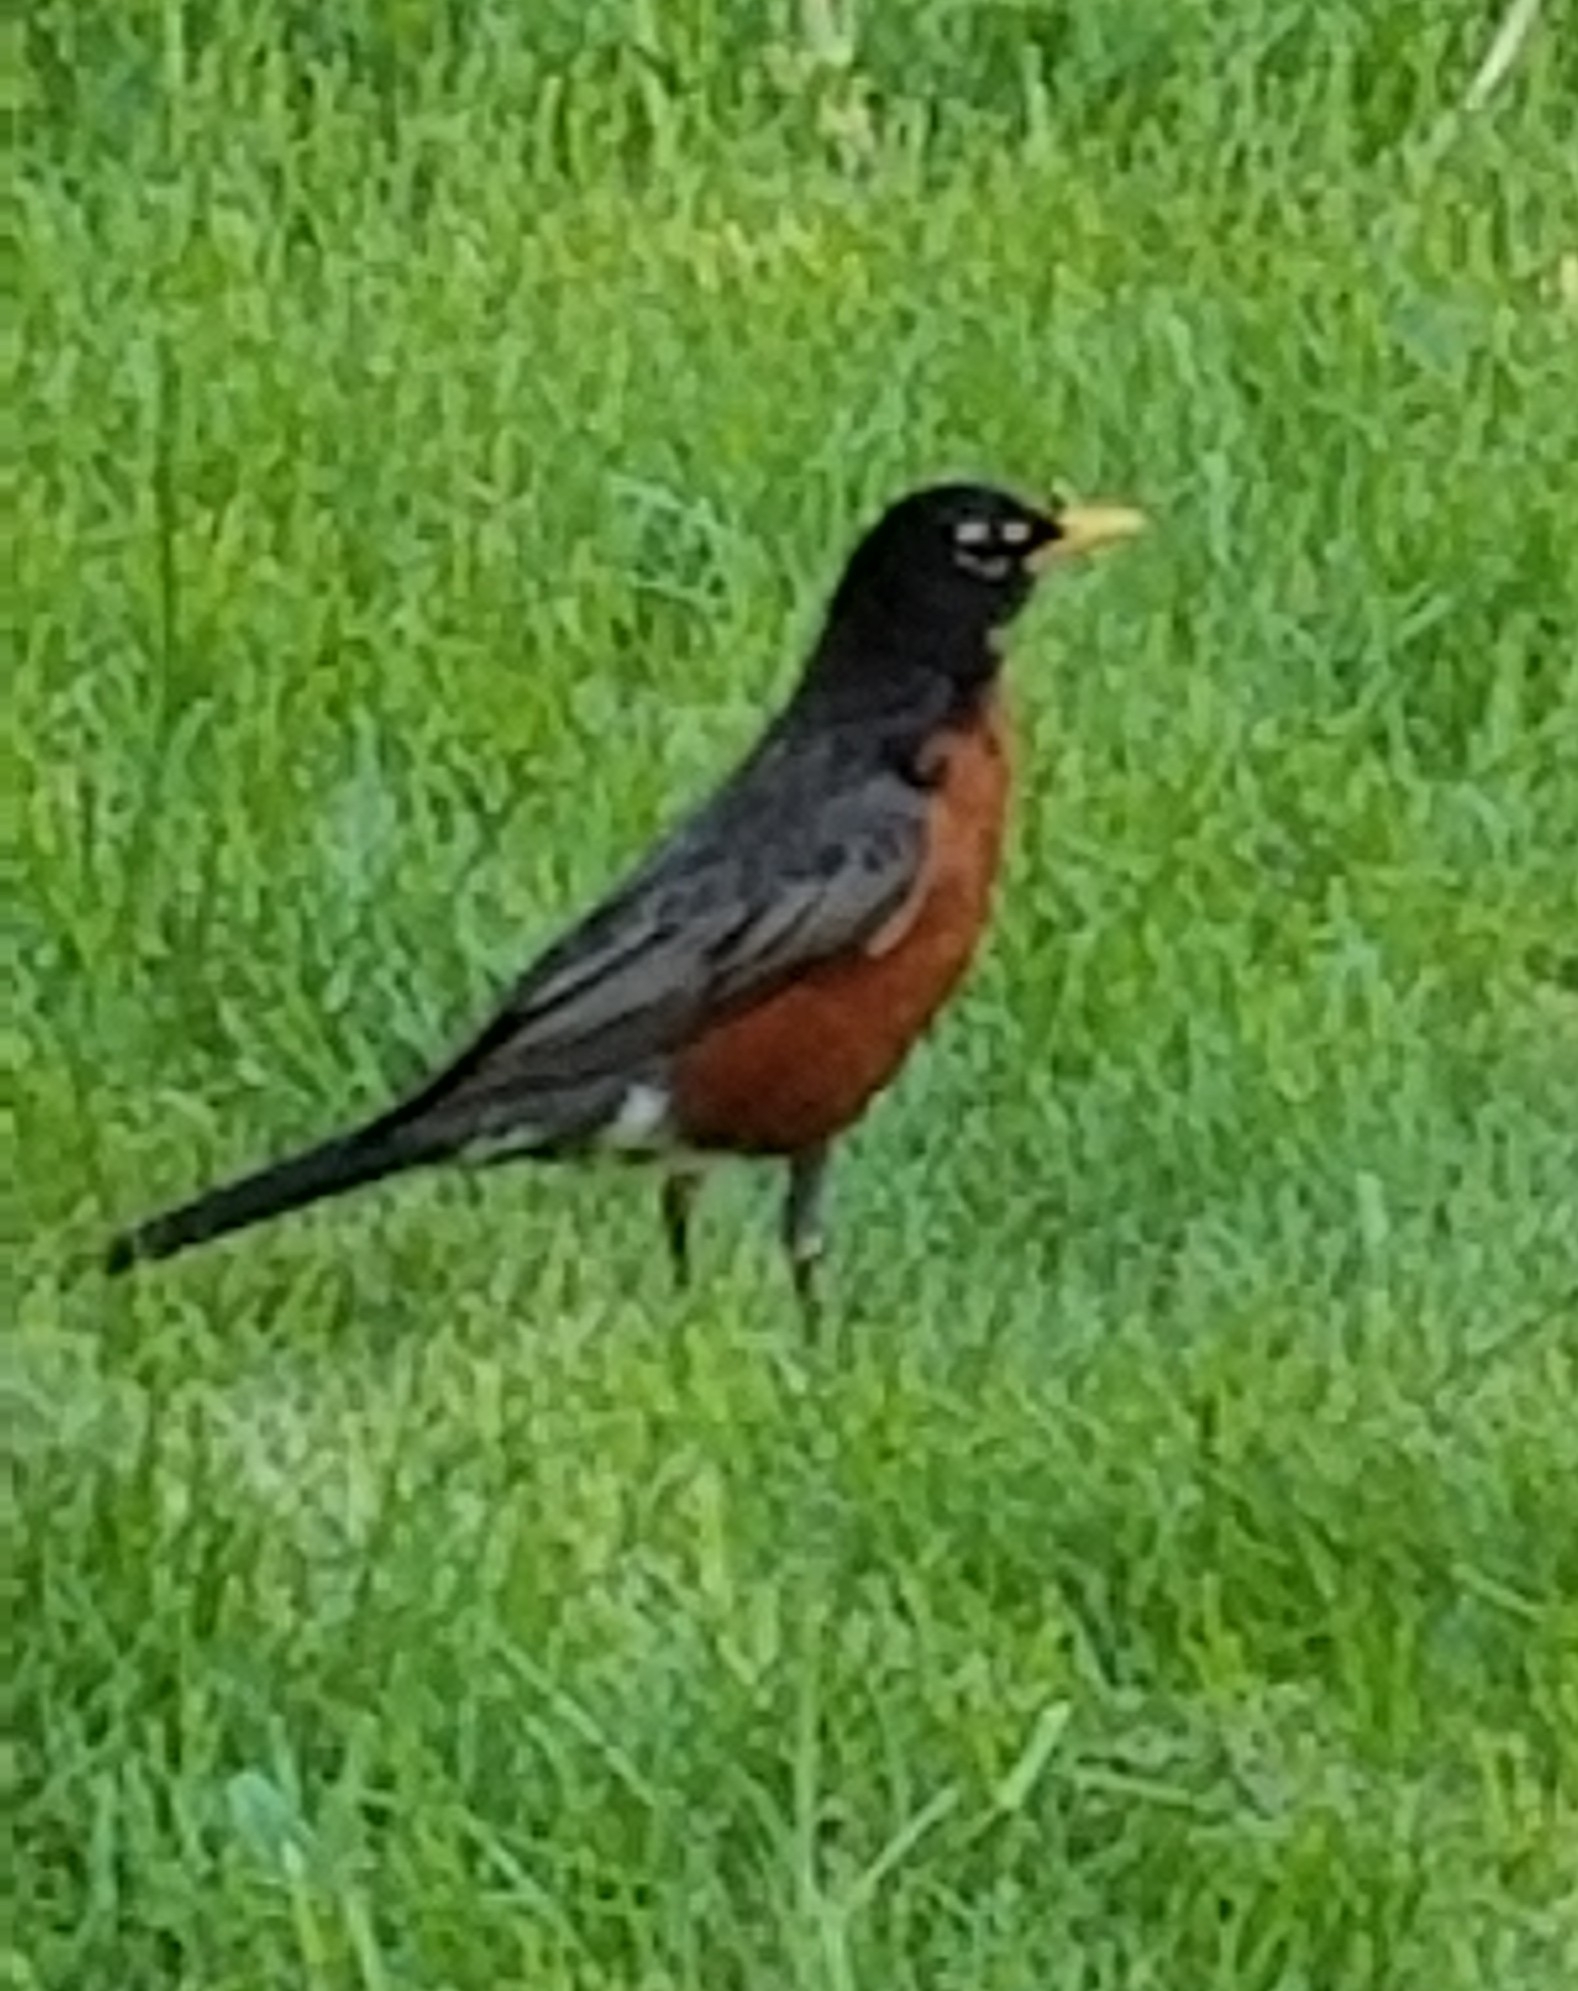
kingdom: Animalia
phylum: Chordata
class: Aves
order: Passeriformes
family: Turdidae
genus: Turdus
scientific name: Turdus migratorius
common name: American robin
